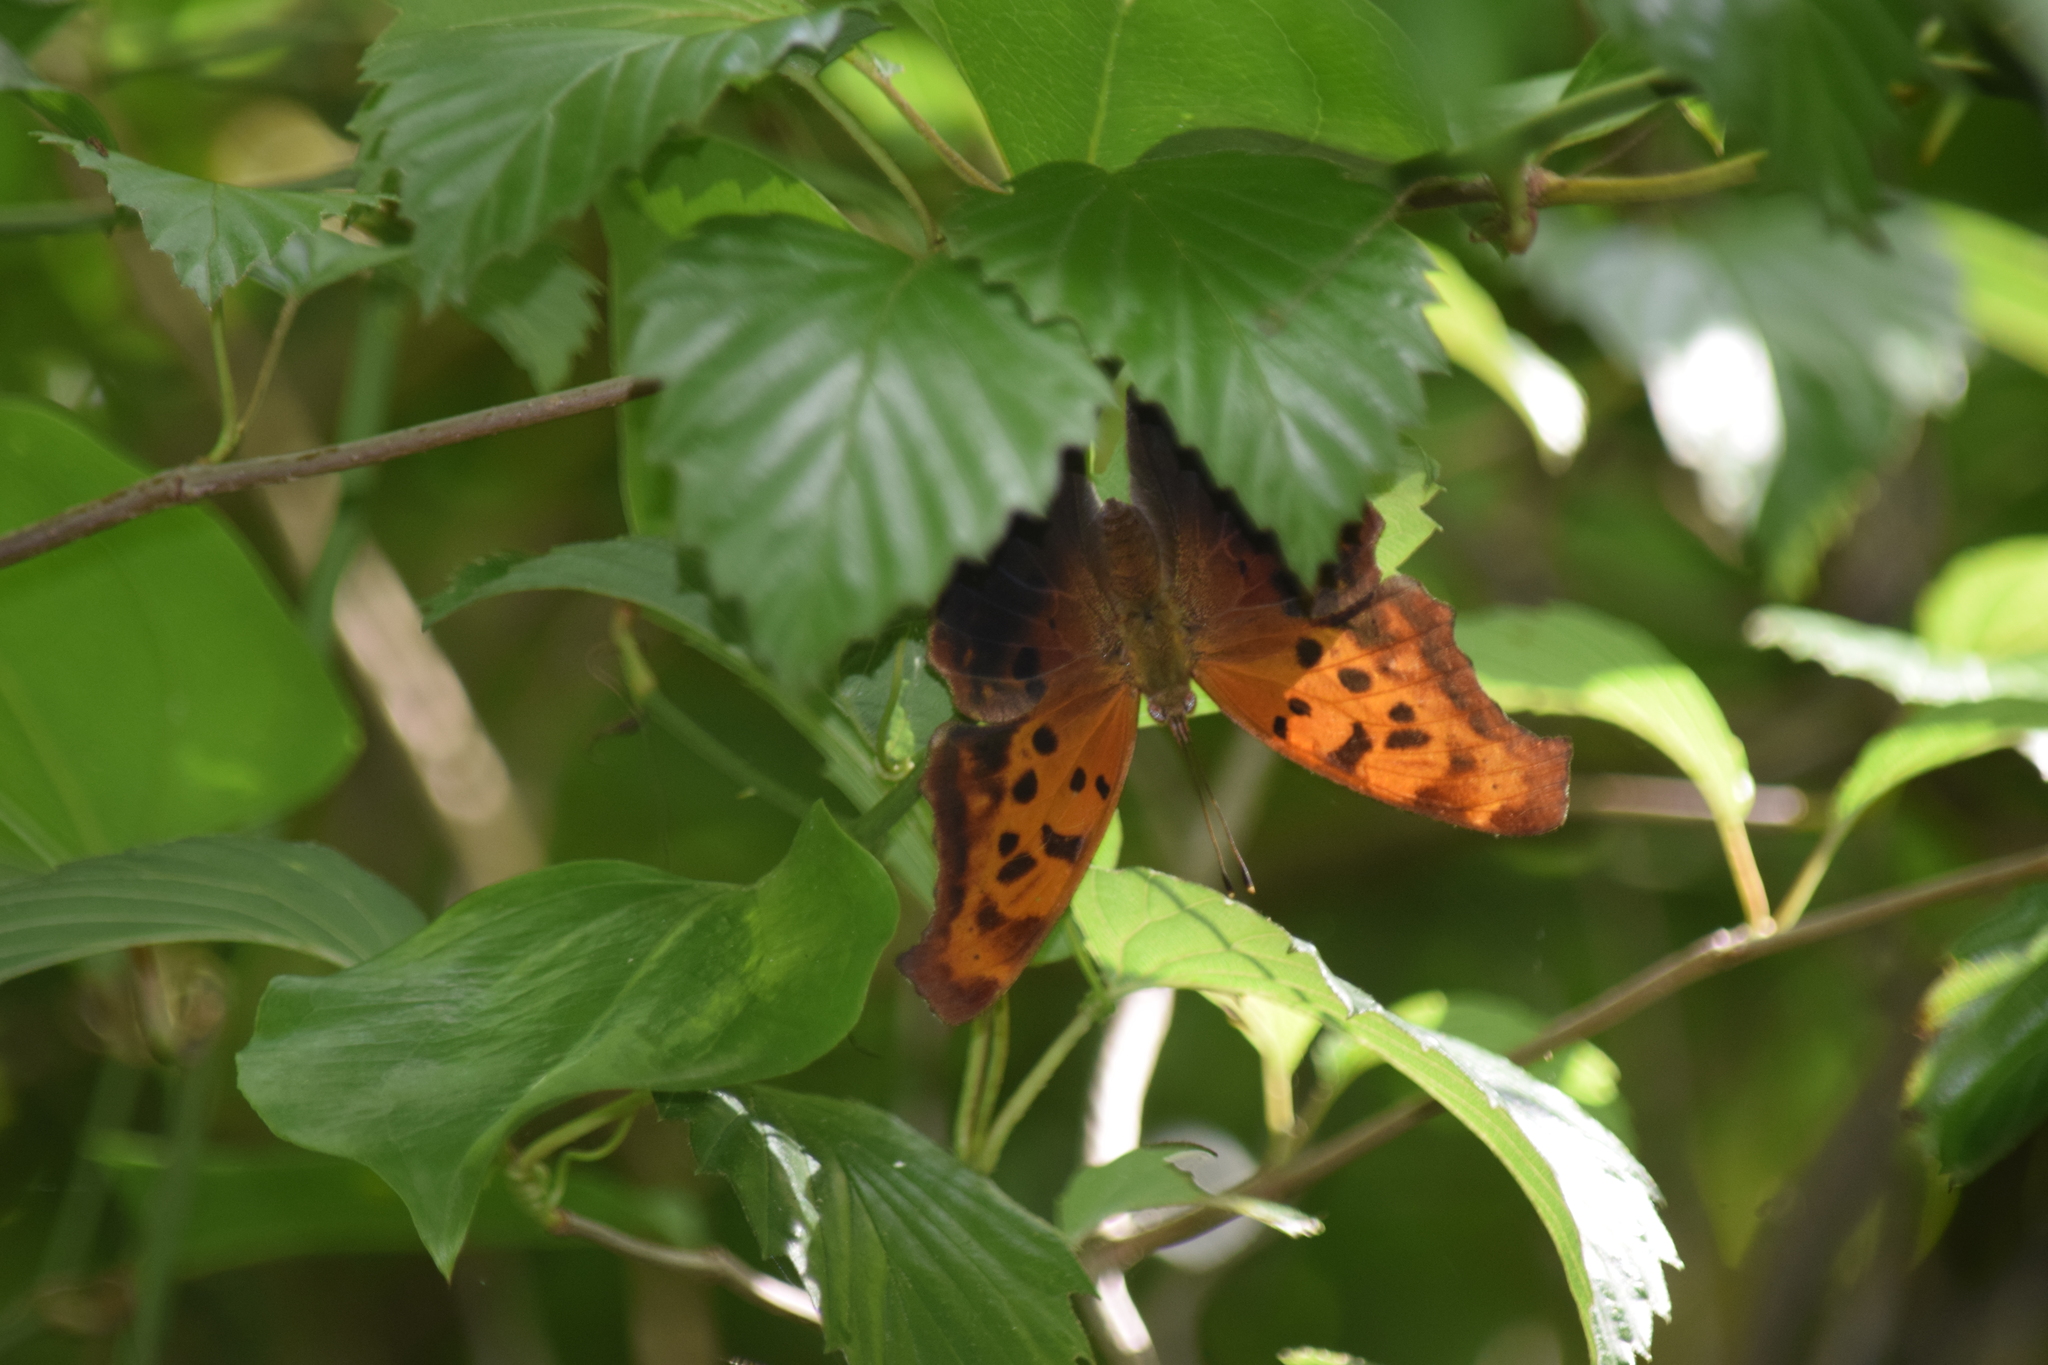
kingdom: Animalia
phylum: Arthropoda
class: Insecta
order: Lepidoptera
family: Nymphalidae
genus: Polygonia
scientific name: Polygonia interrogationis
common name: Question mark
